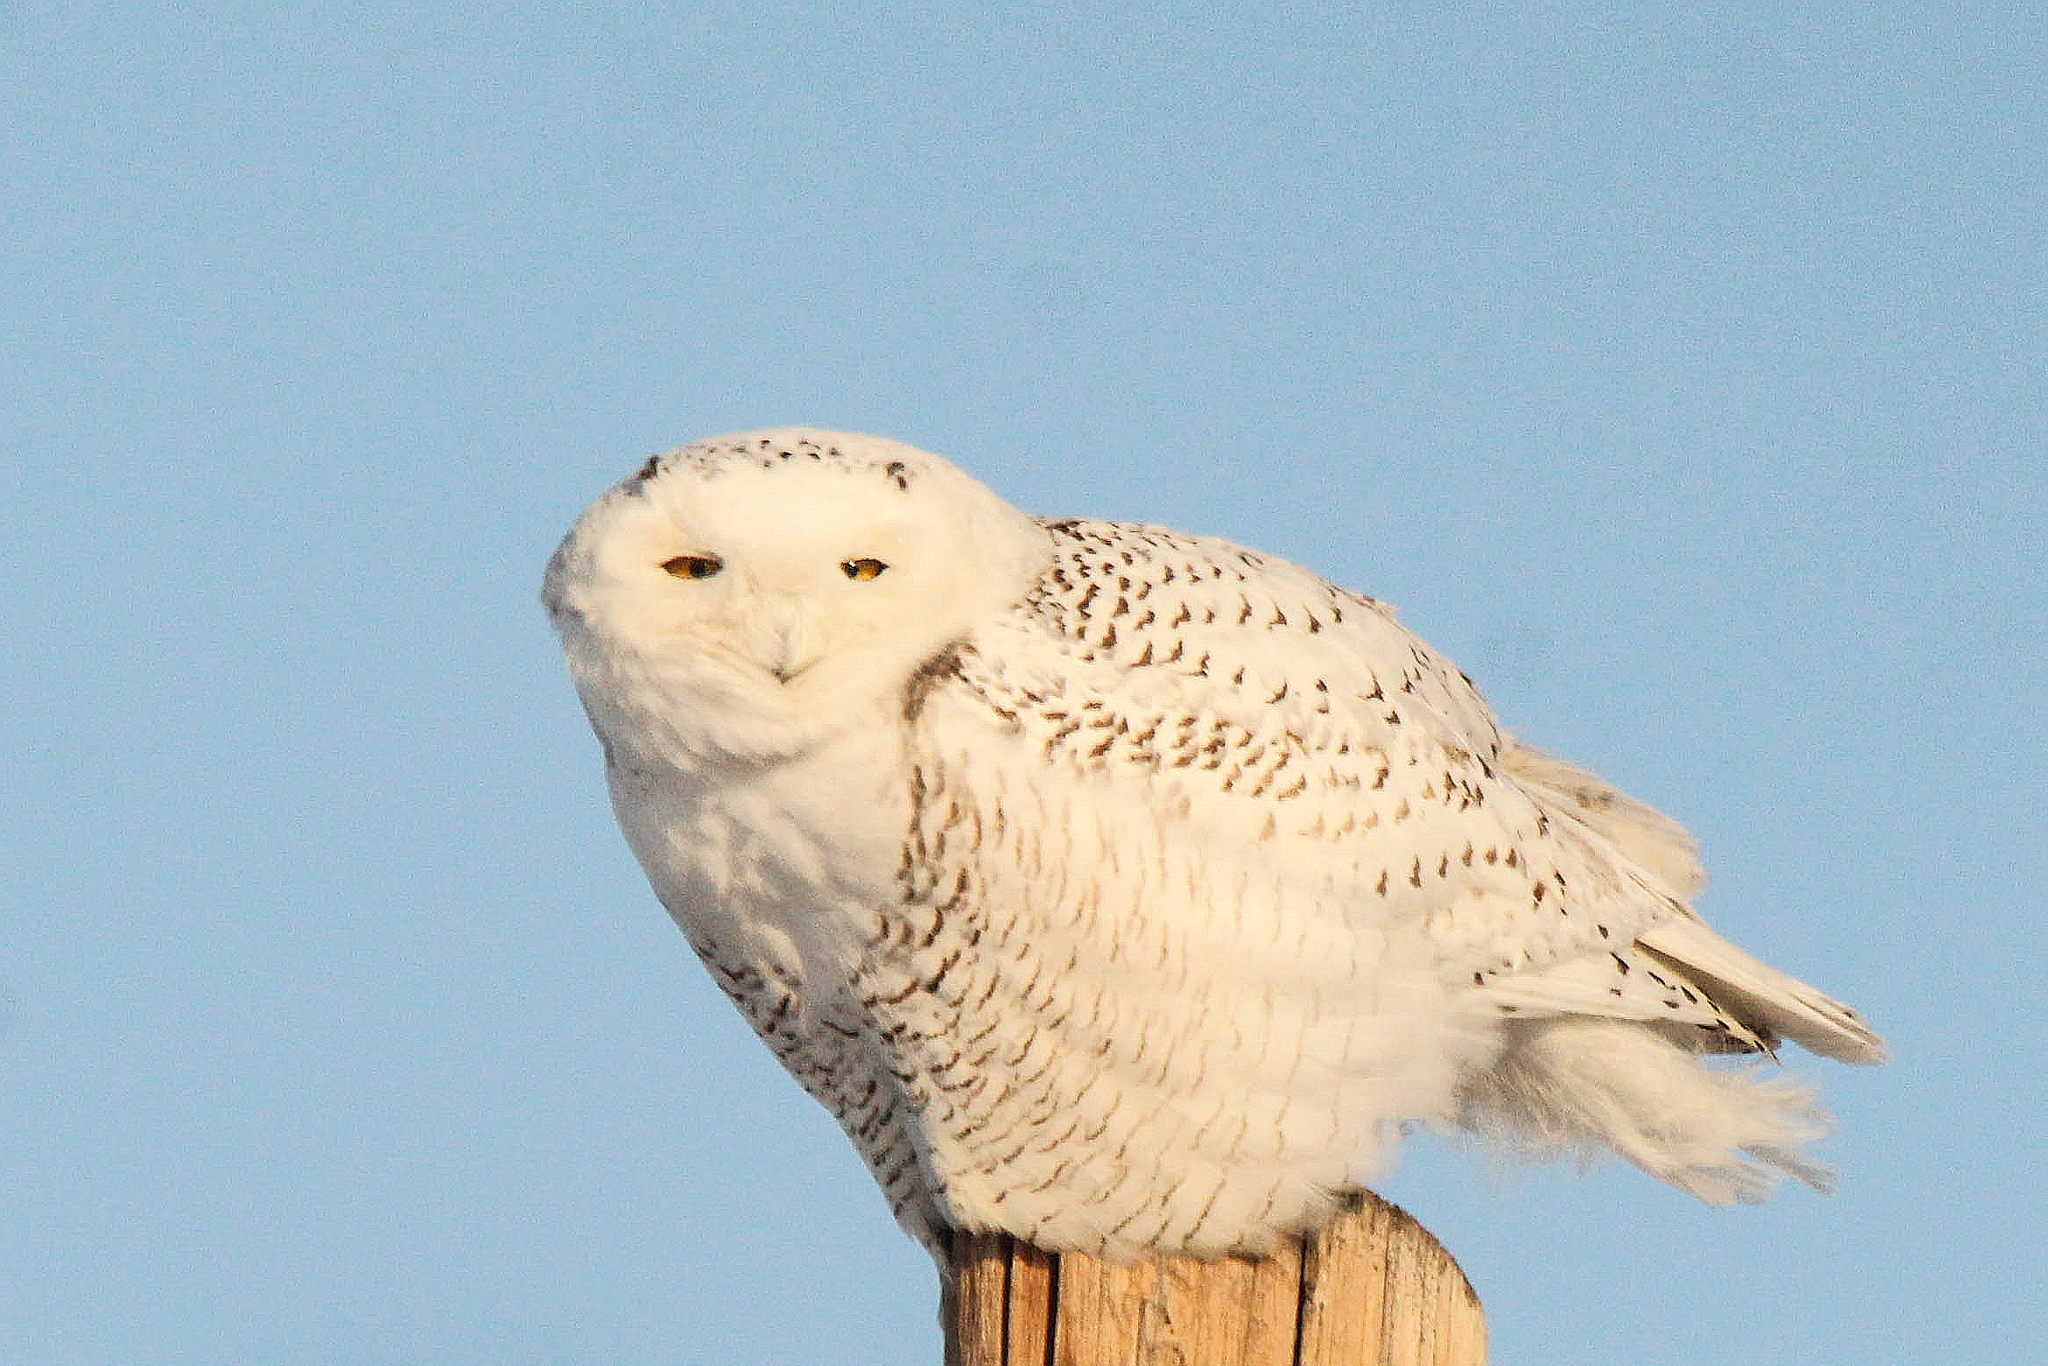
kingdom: Animalia
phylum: Chordata
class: Aves
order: Strigiformes
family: Strigidae
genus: Bubo
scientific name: Bubo scandiacus
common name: Snowy owl
